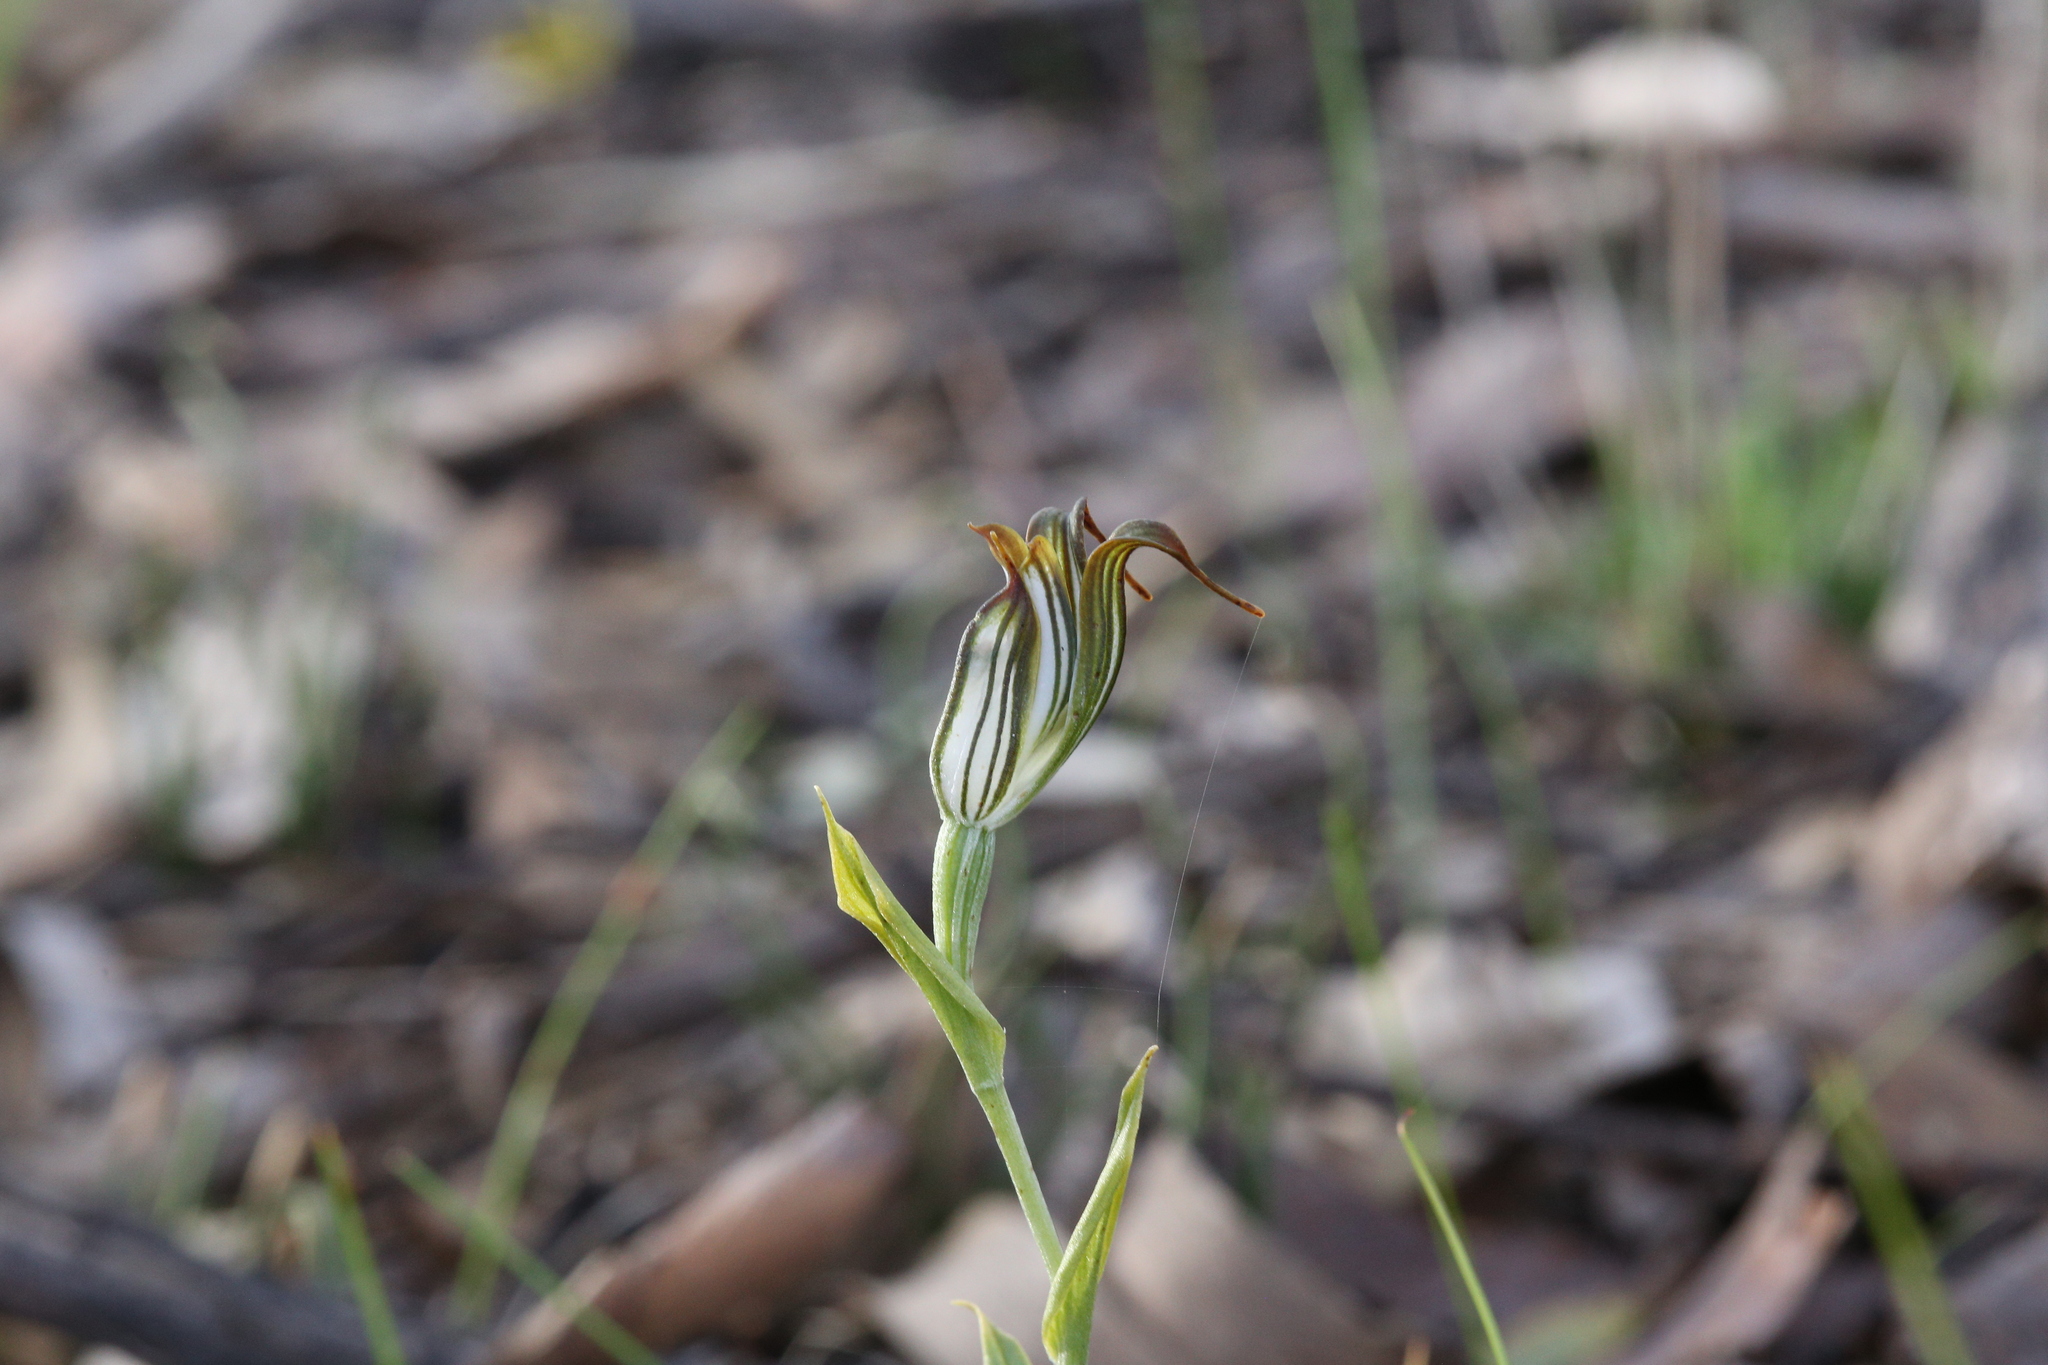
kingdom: Plantae
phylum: Tracheophyta
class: Liliopsida
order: Asparagales
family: Orchidaceae
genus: Pterostylis
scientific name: Pterostylis recurva
